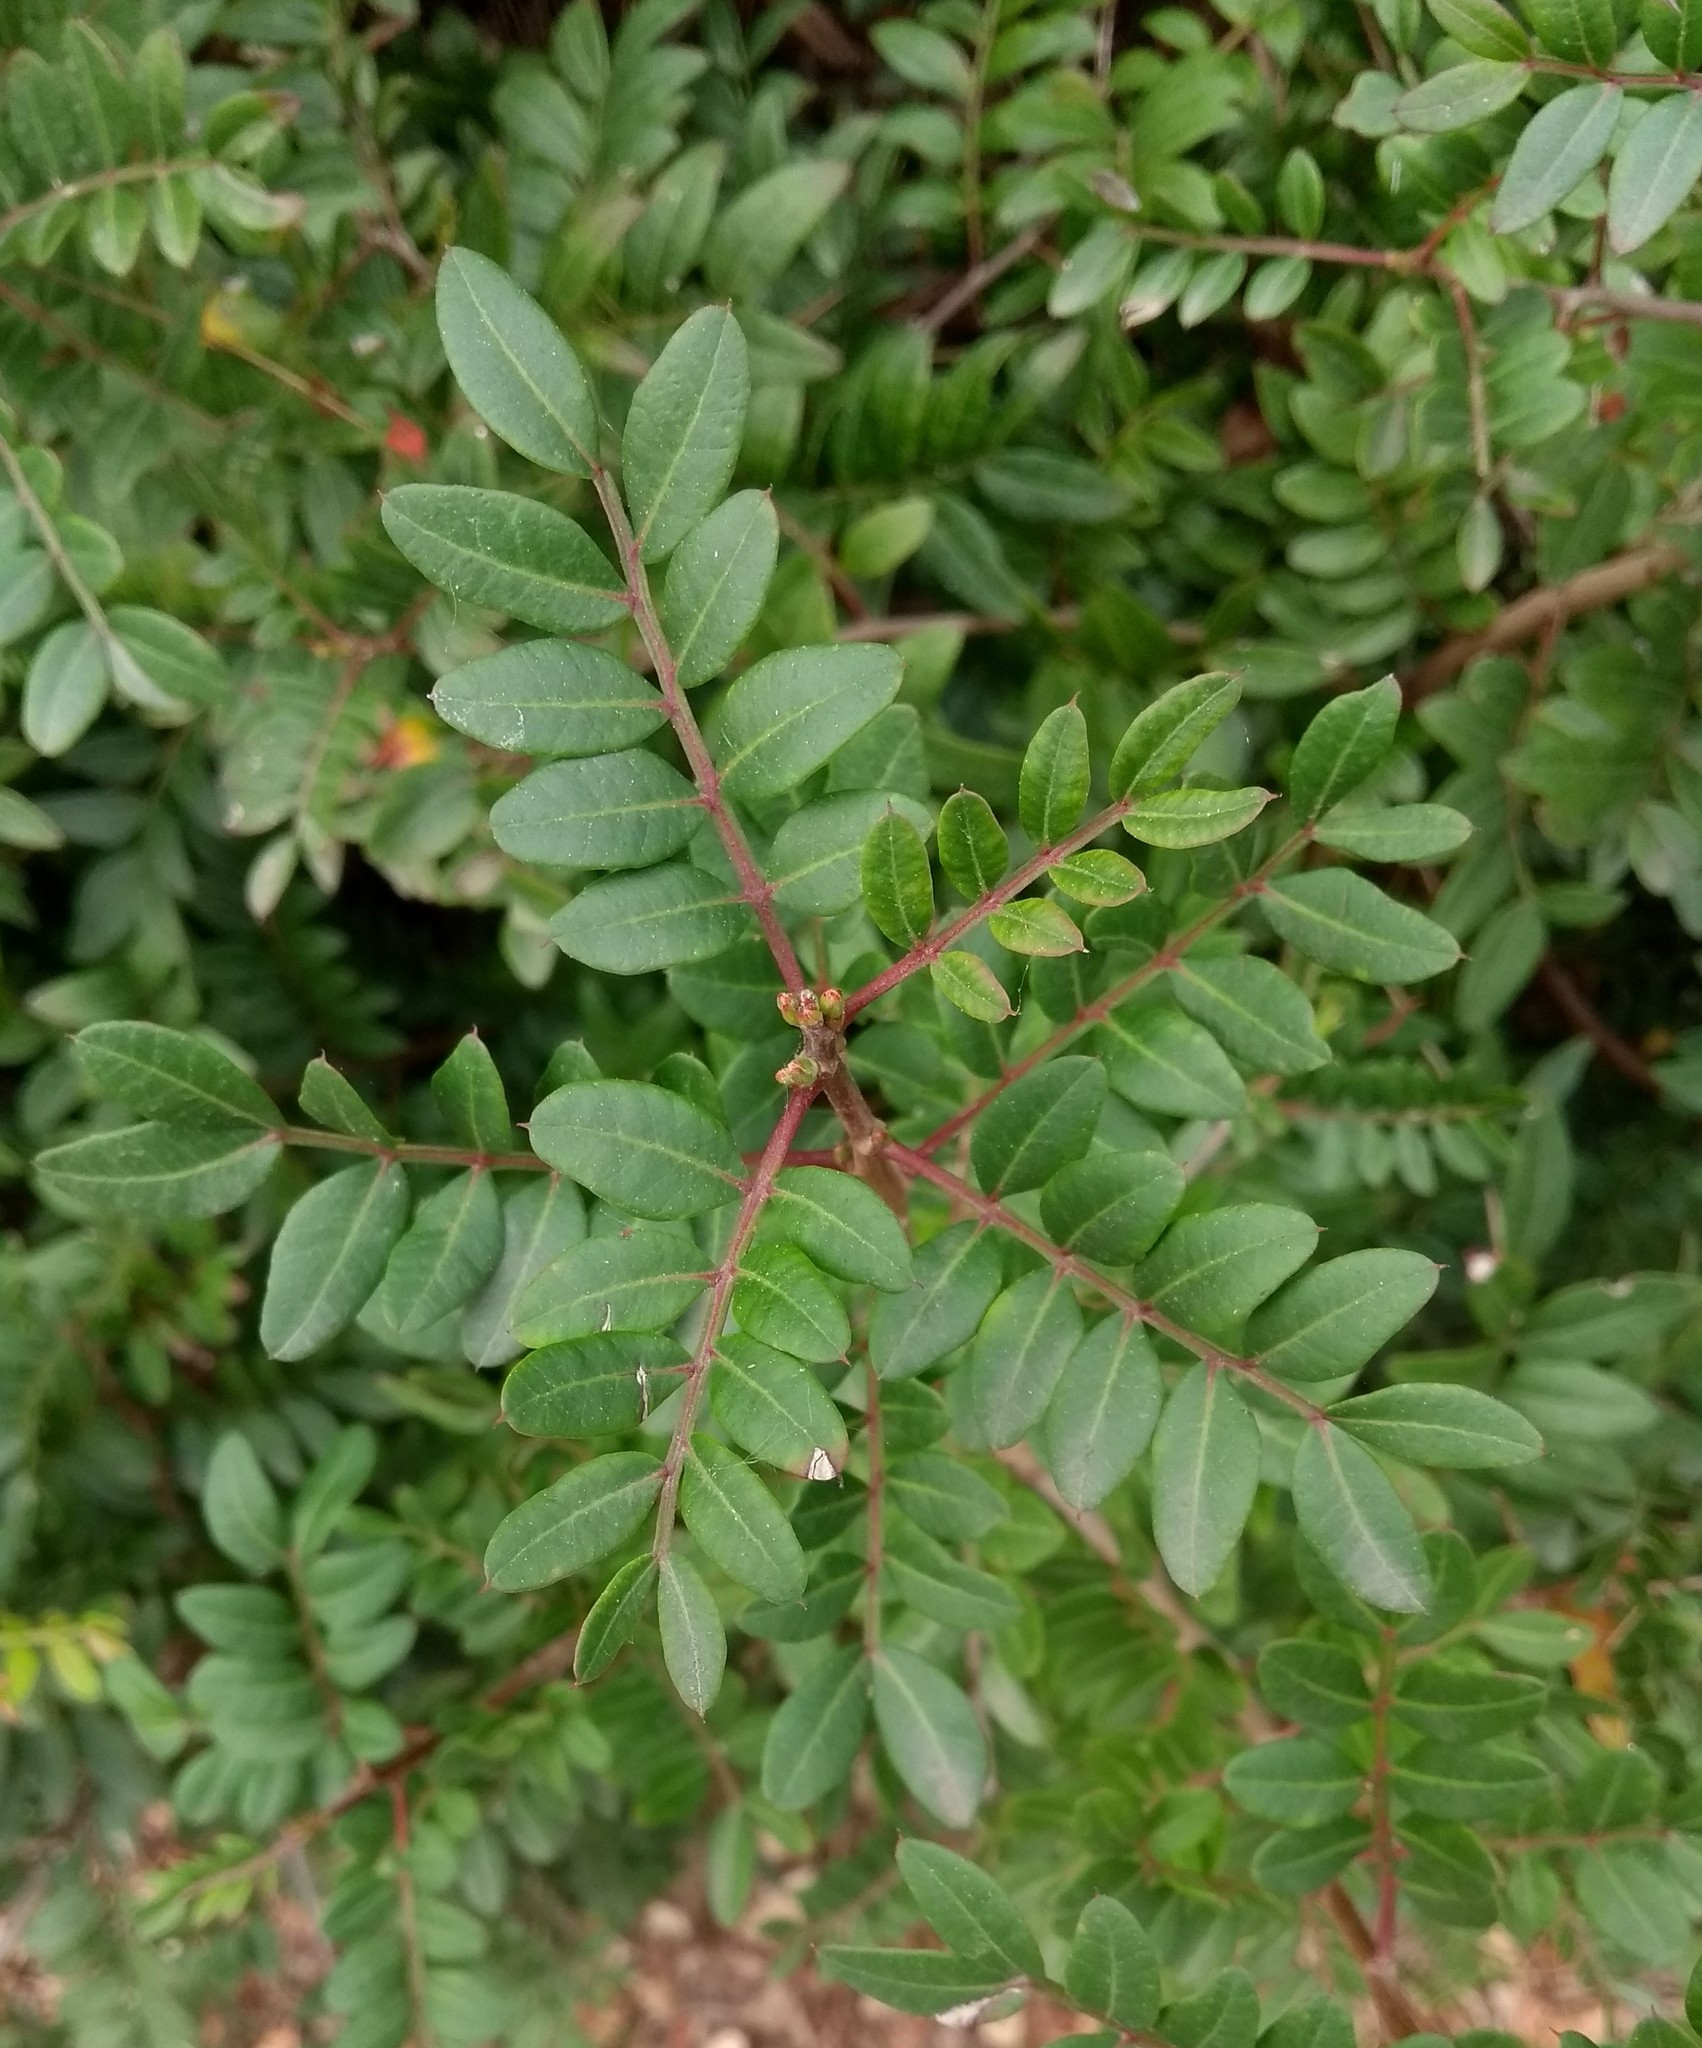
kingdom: Plantae
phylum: Tracheophyta
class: Magnoliopsida
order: Sapindales
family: Anacardiaceae
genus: Pistacia
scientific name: Pistacia lentiscus
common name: Lentisk
